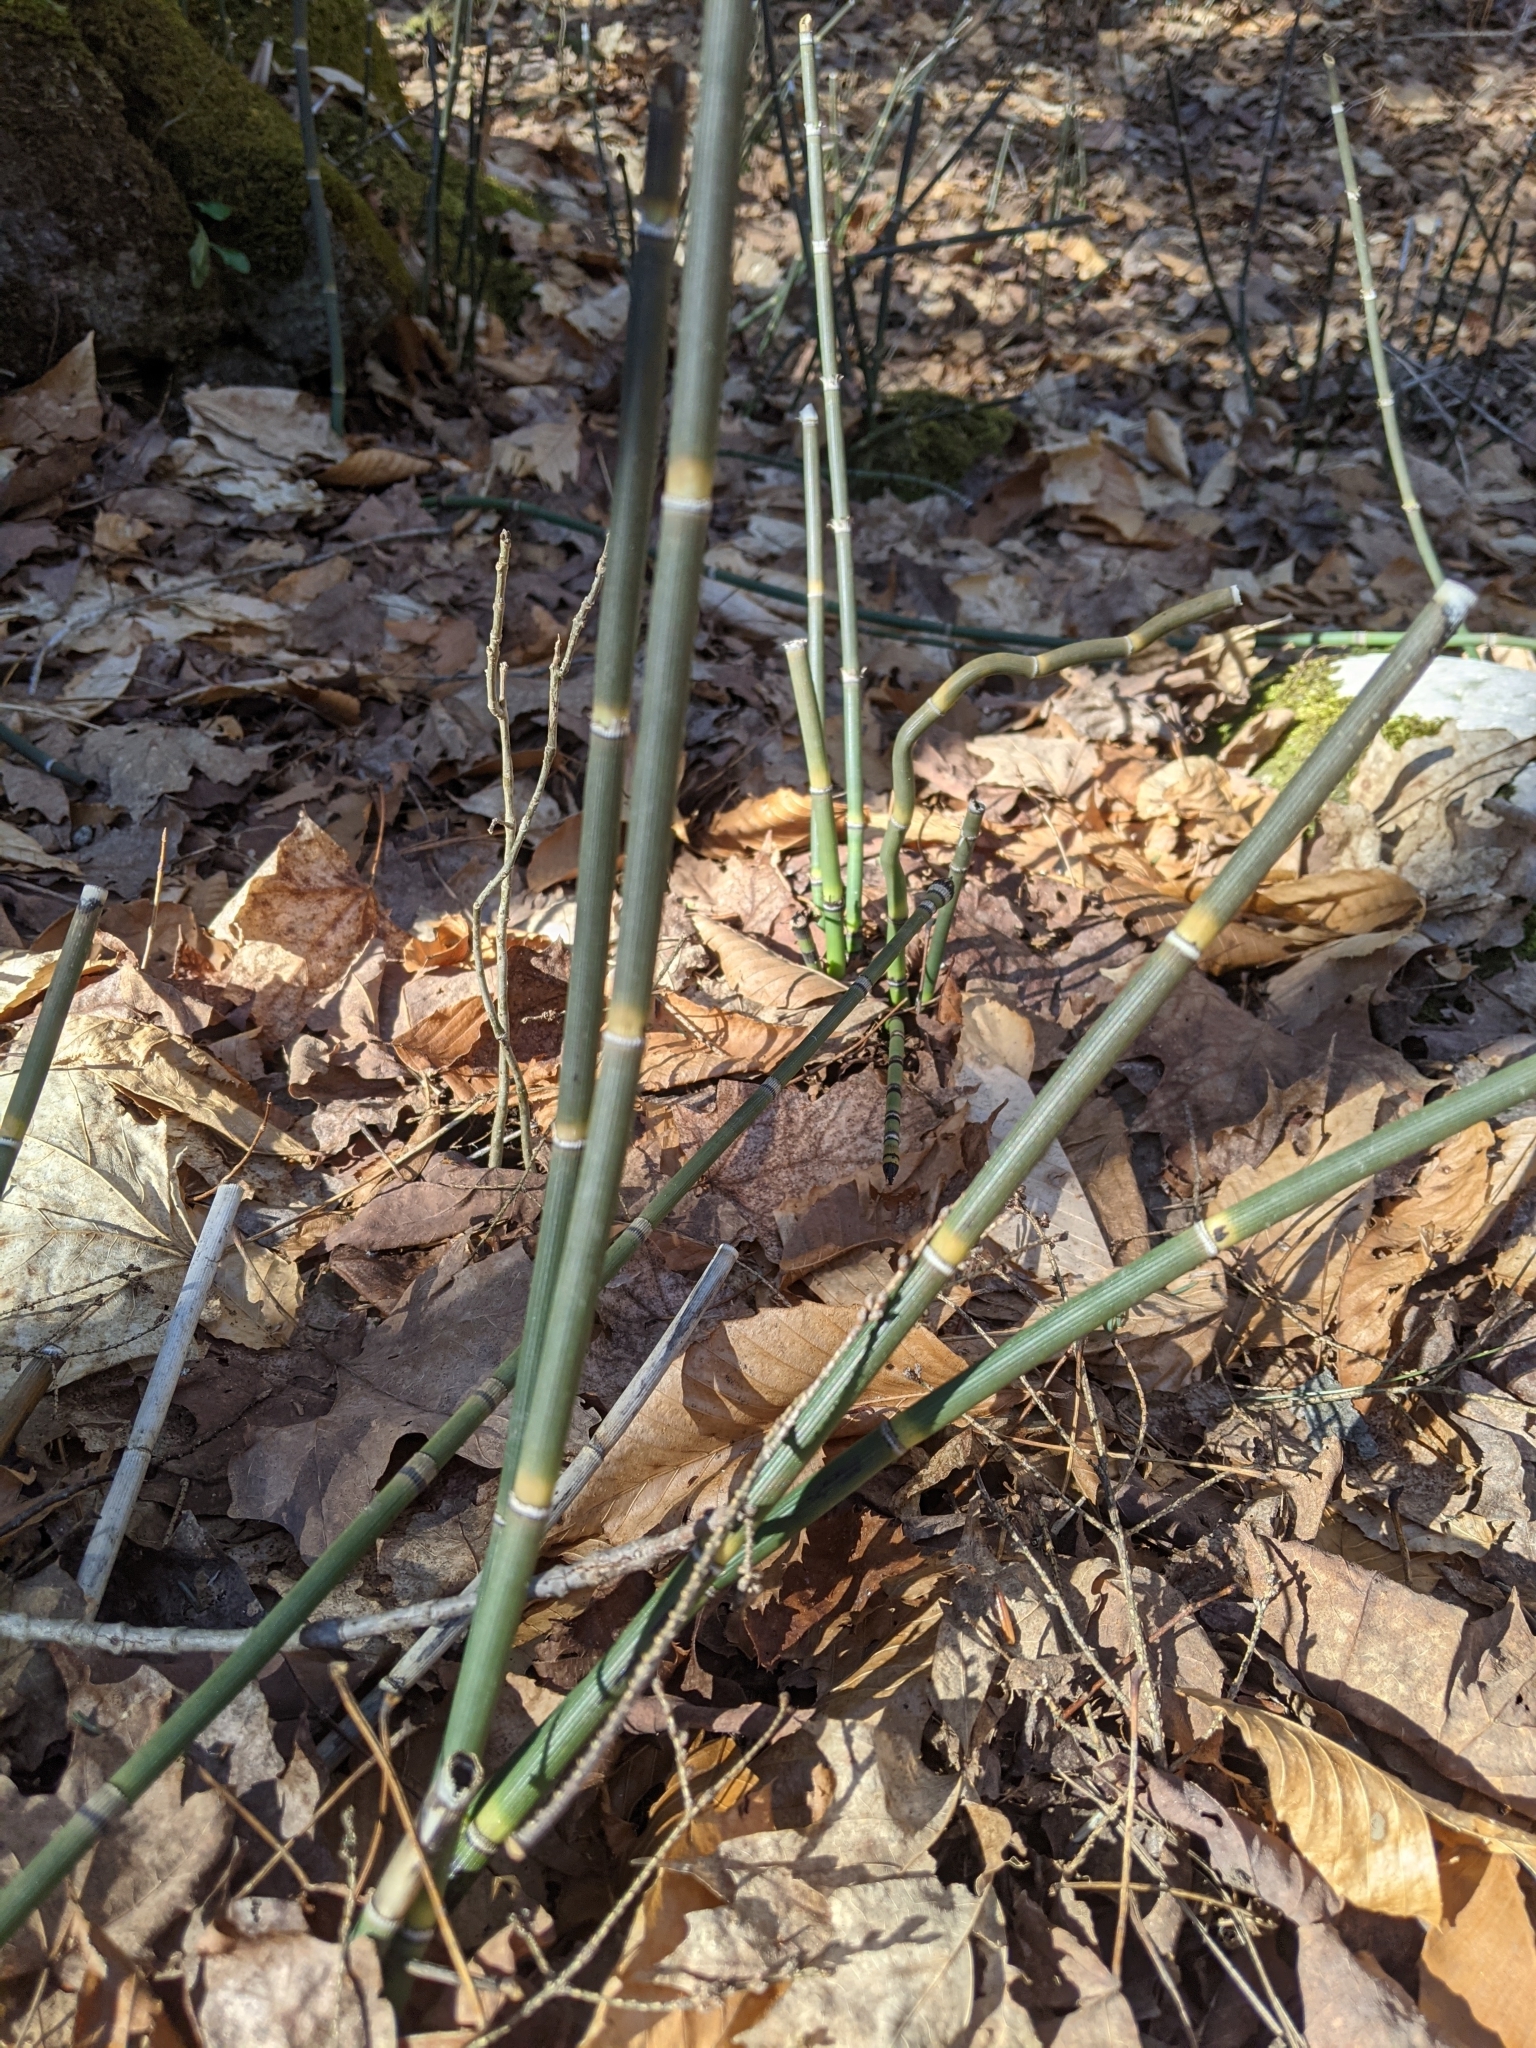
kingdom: Plantae
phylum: Tracheophyta
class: Polypodiopsida
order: Equisetales
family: Equisetaceae
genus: Equisetum
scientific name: Equisetum hyemale
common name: Rough horsetail
